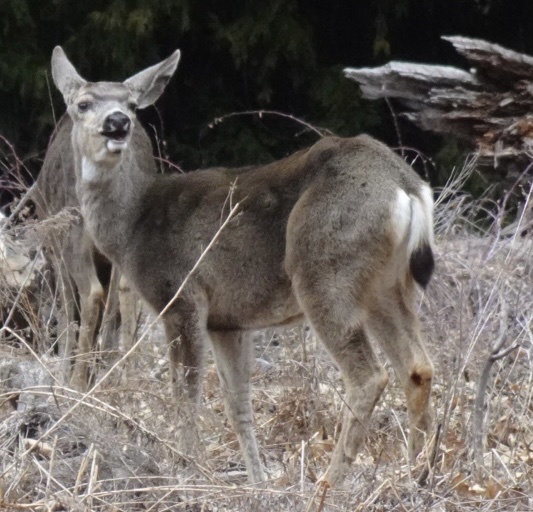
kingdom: Animalia
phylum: Chordata
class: Mammalia
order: Artiodactyla
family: Cervidae
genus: Odocoileus
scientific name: Odocoileus hemionus
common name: Mule deer
